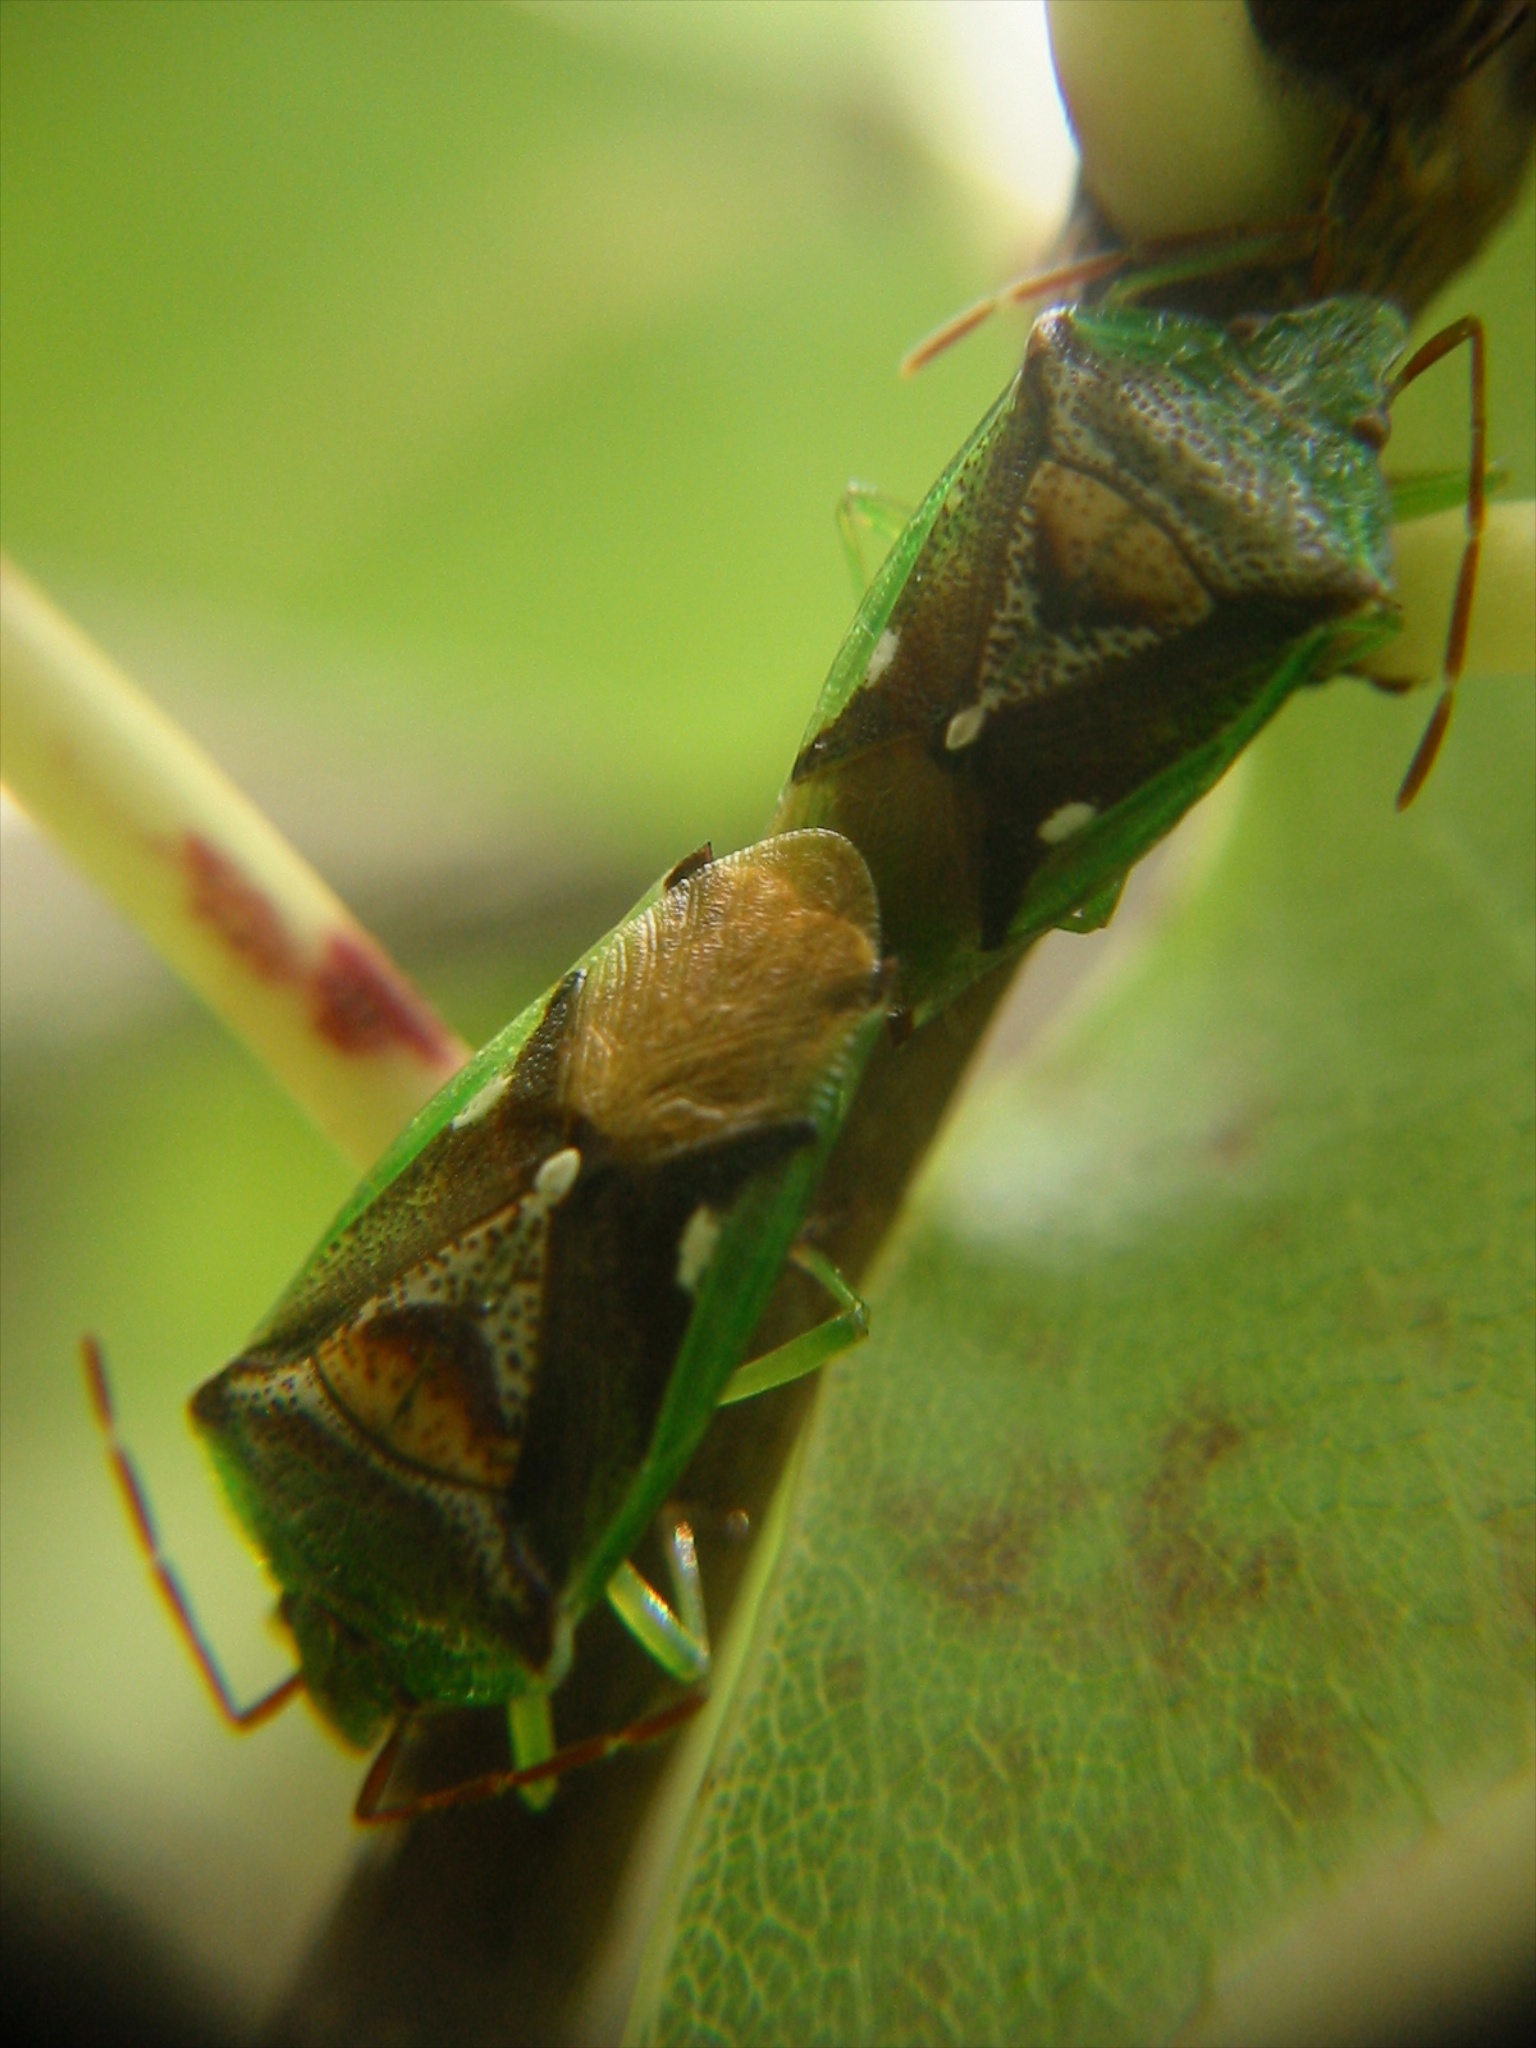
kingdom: Animalia
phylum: Arthropoda
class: Insecta
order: Hemiptera
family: Acanthosomatidae
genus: Oncacontias
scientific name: Oncacontias vittatus
